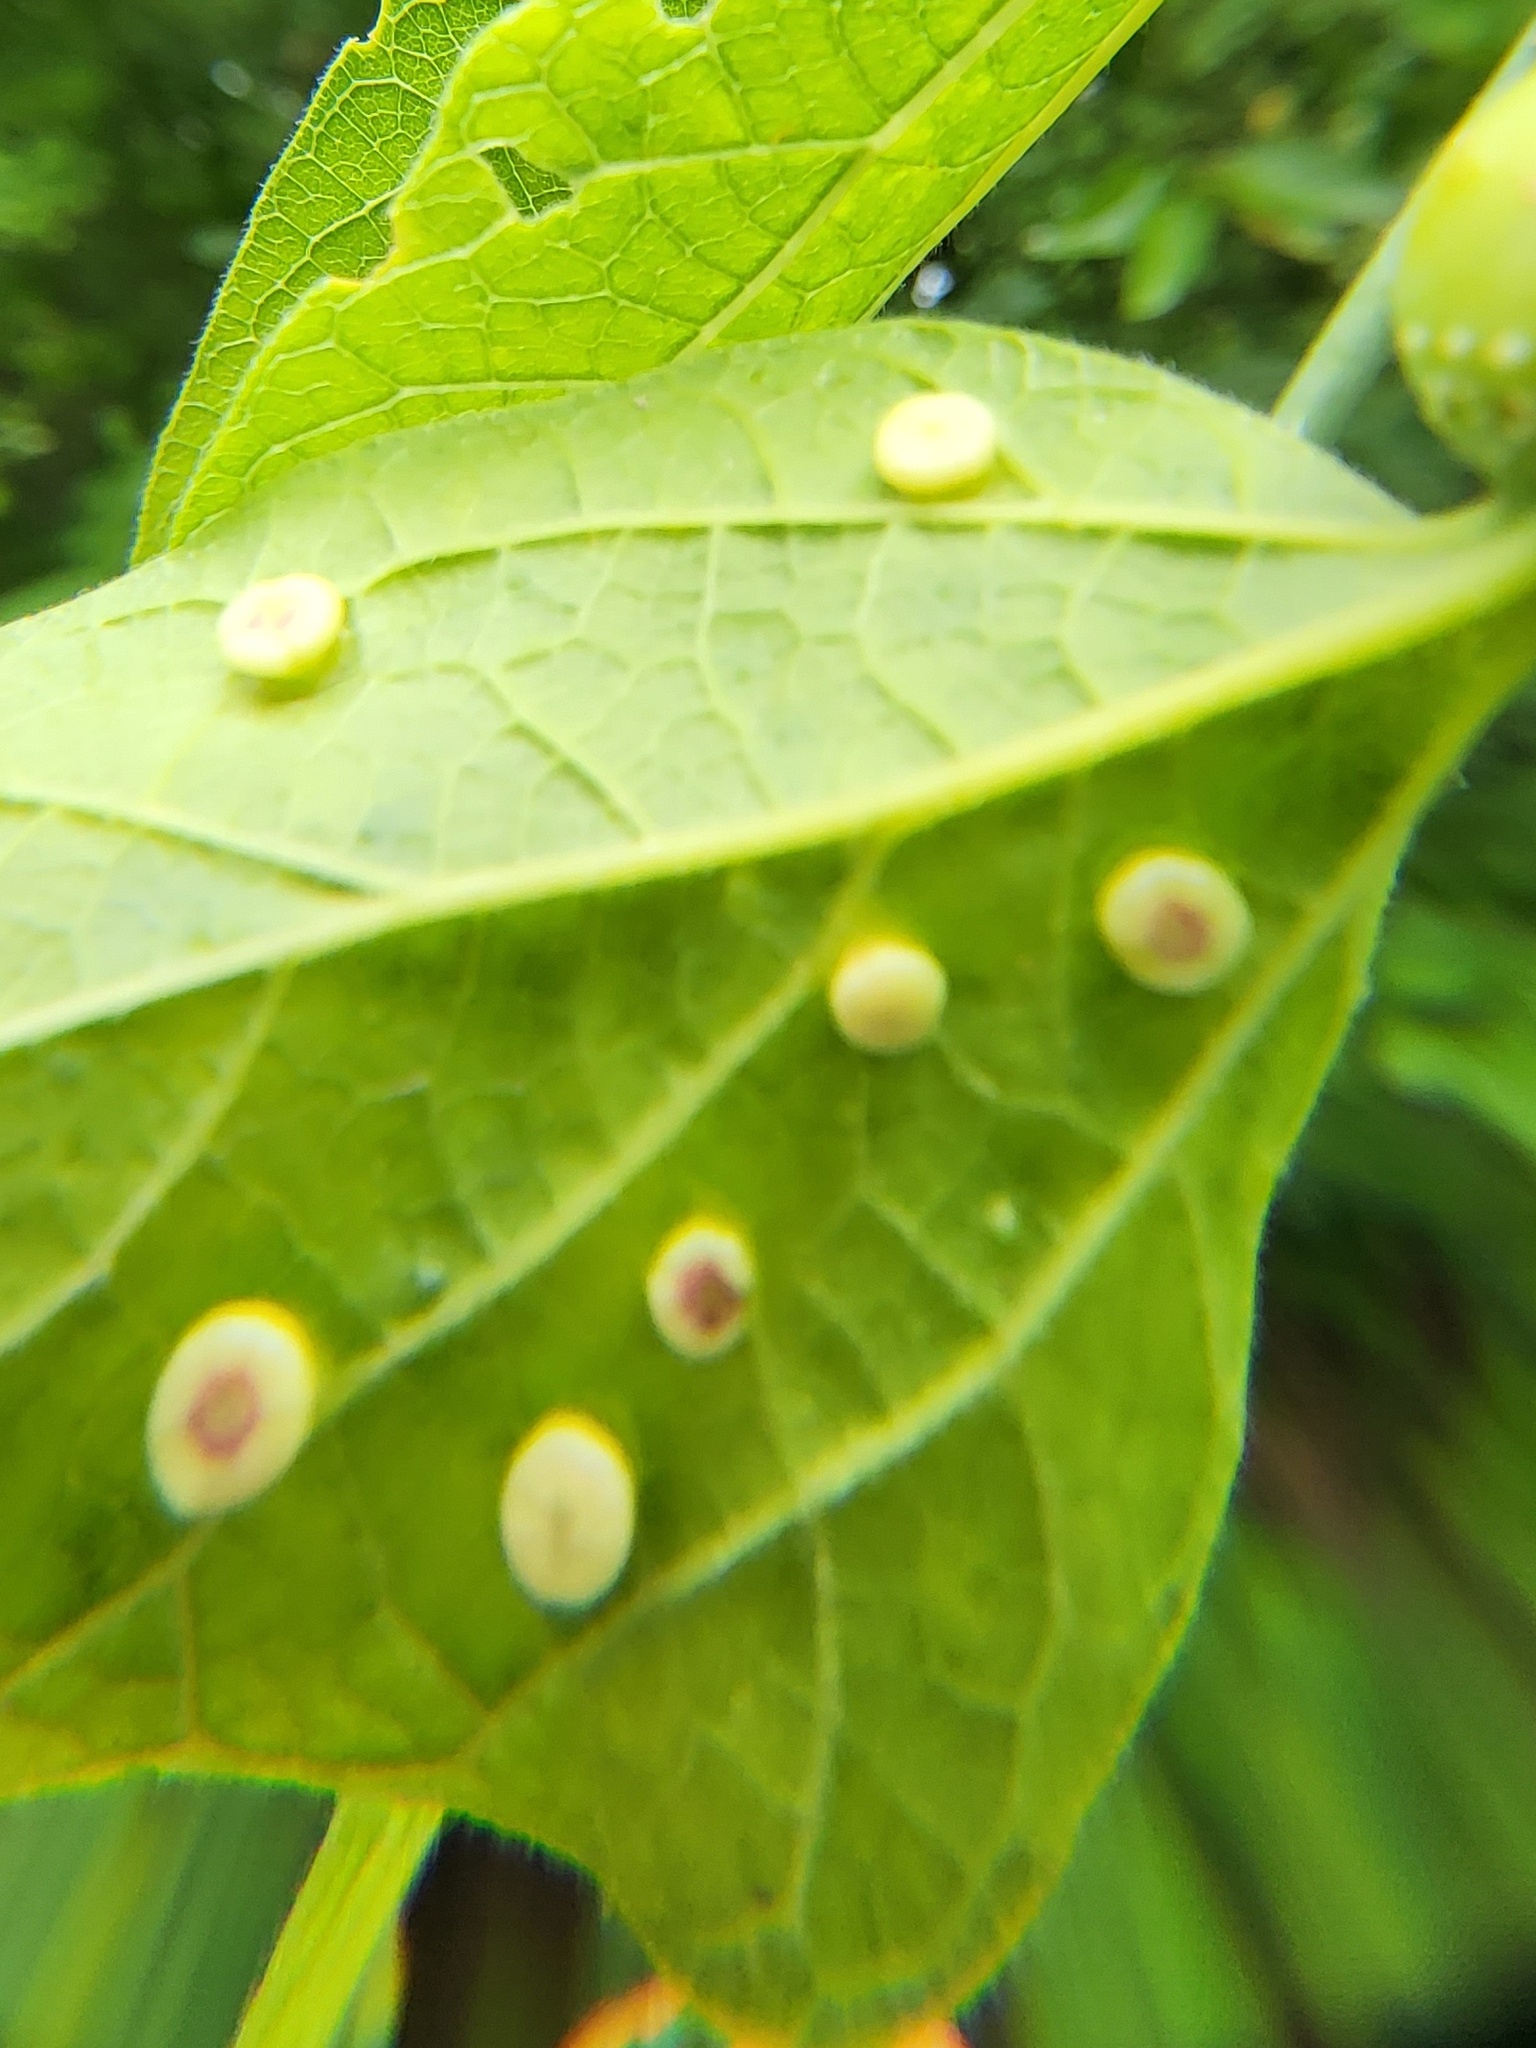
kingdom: Animalia
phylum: Arthropoda
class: Insecta
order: Hemiptera
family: Aphalaridae
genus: Pachypsylla
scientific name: Pachypsylla celtidismamma
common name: Hackberry nipplegall psyllid
